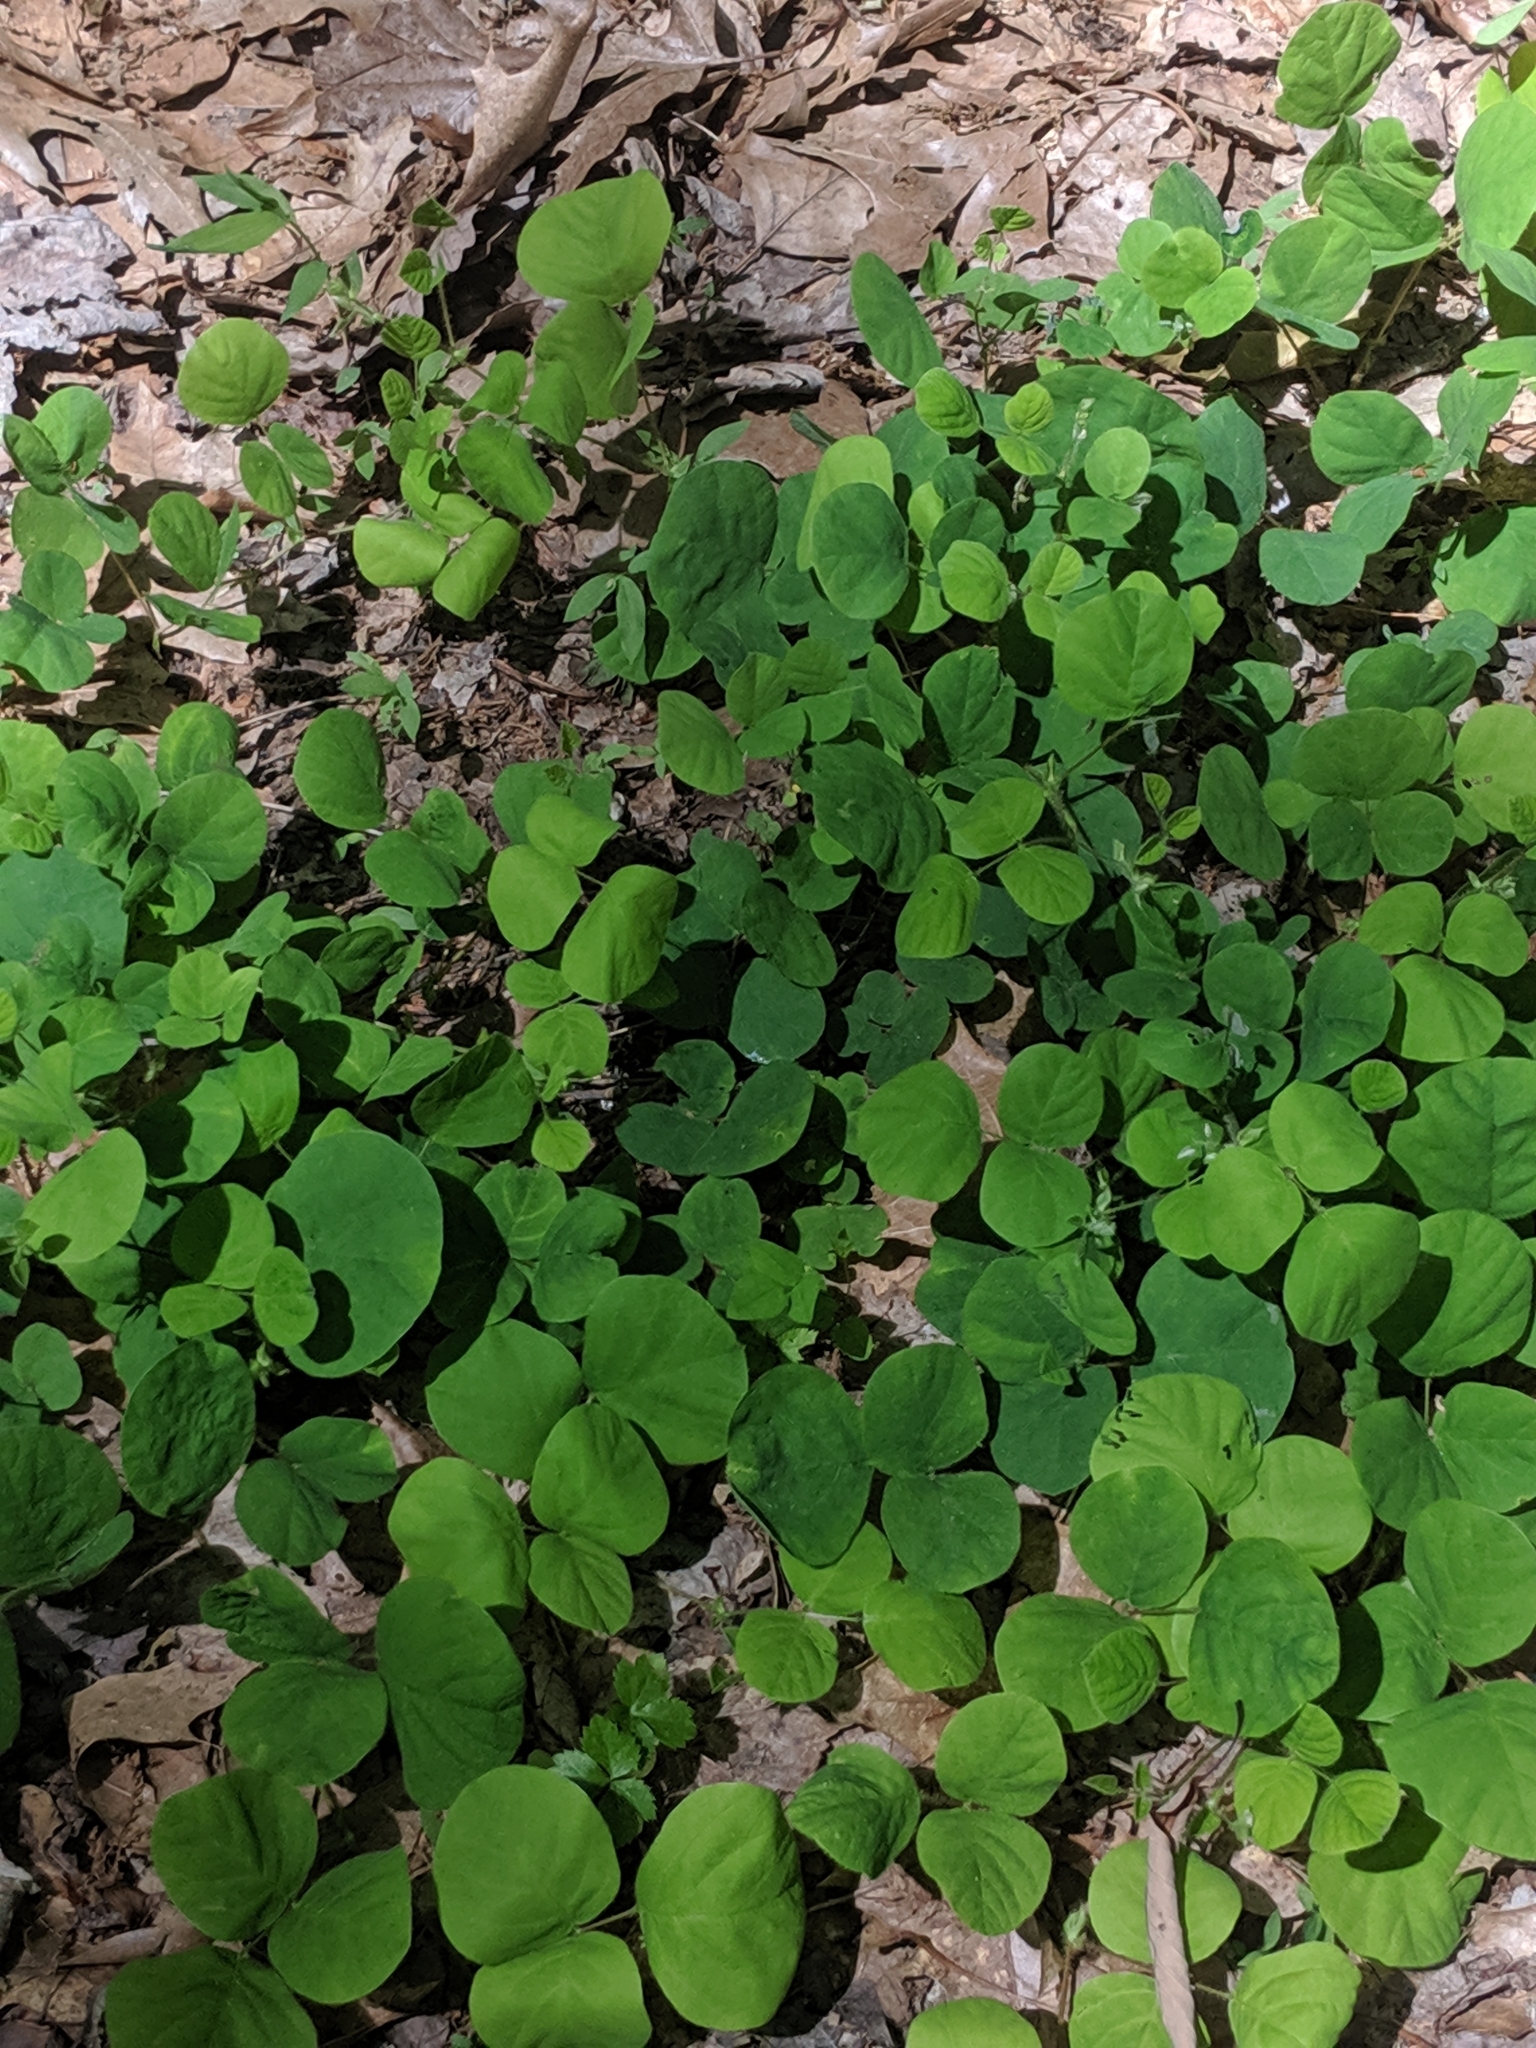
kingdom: Plantae
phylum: Tracheophyta
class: Magnoliopsida
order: Fabales
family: Fabaceae
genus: Desmodium
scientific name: Desmodium rotundifolium
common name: Dollarleaf
